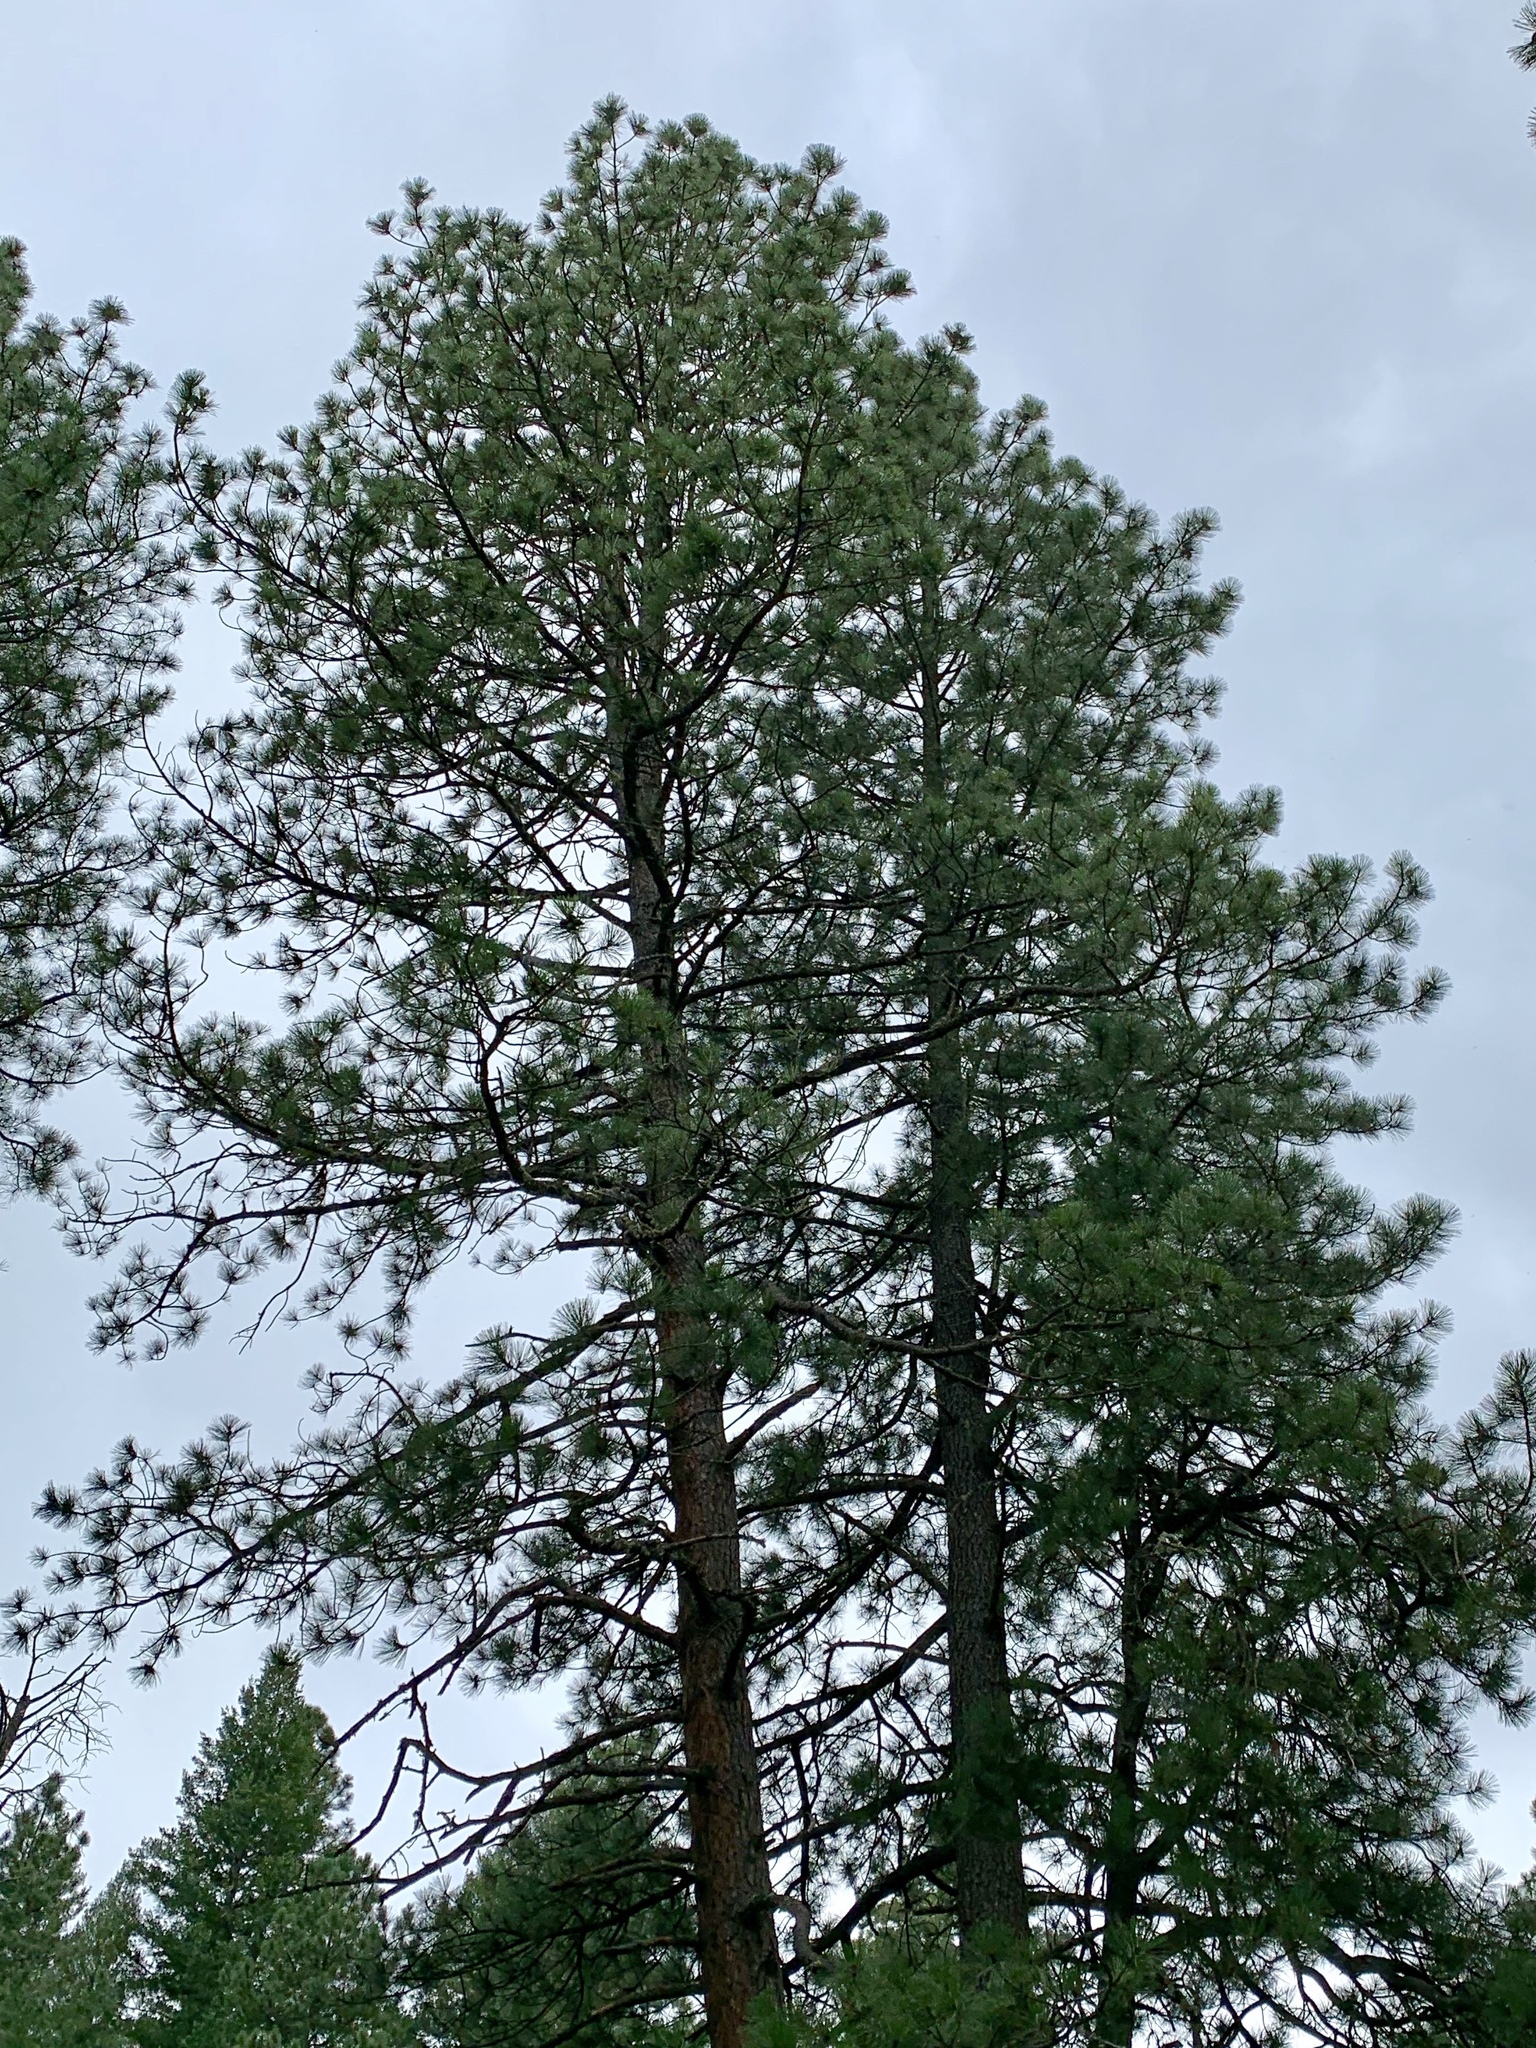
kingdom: Plantae
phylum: Tracheophyta
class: Pinopsida
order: Pinales
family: Pinaceae
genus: Pinus
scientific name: Pinus ponderosa
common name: Western yellow-pine
